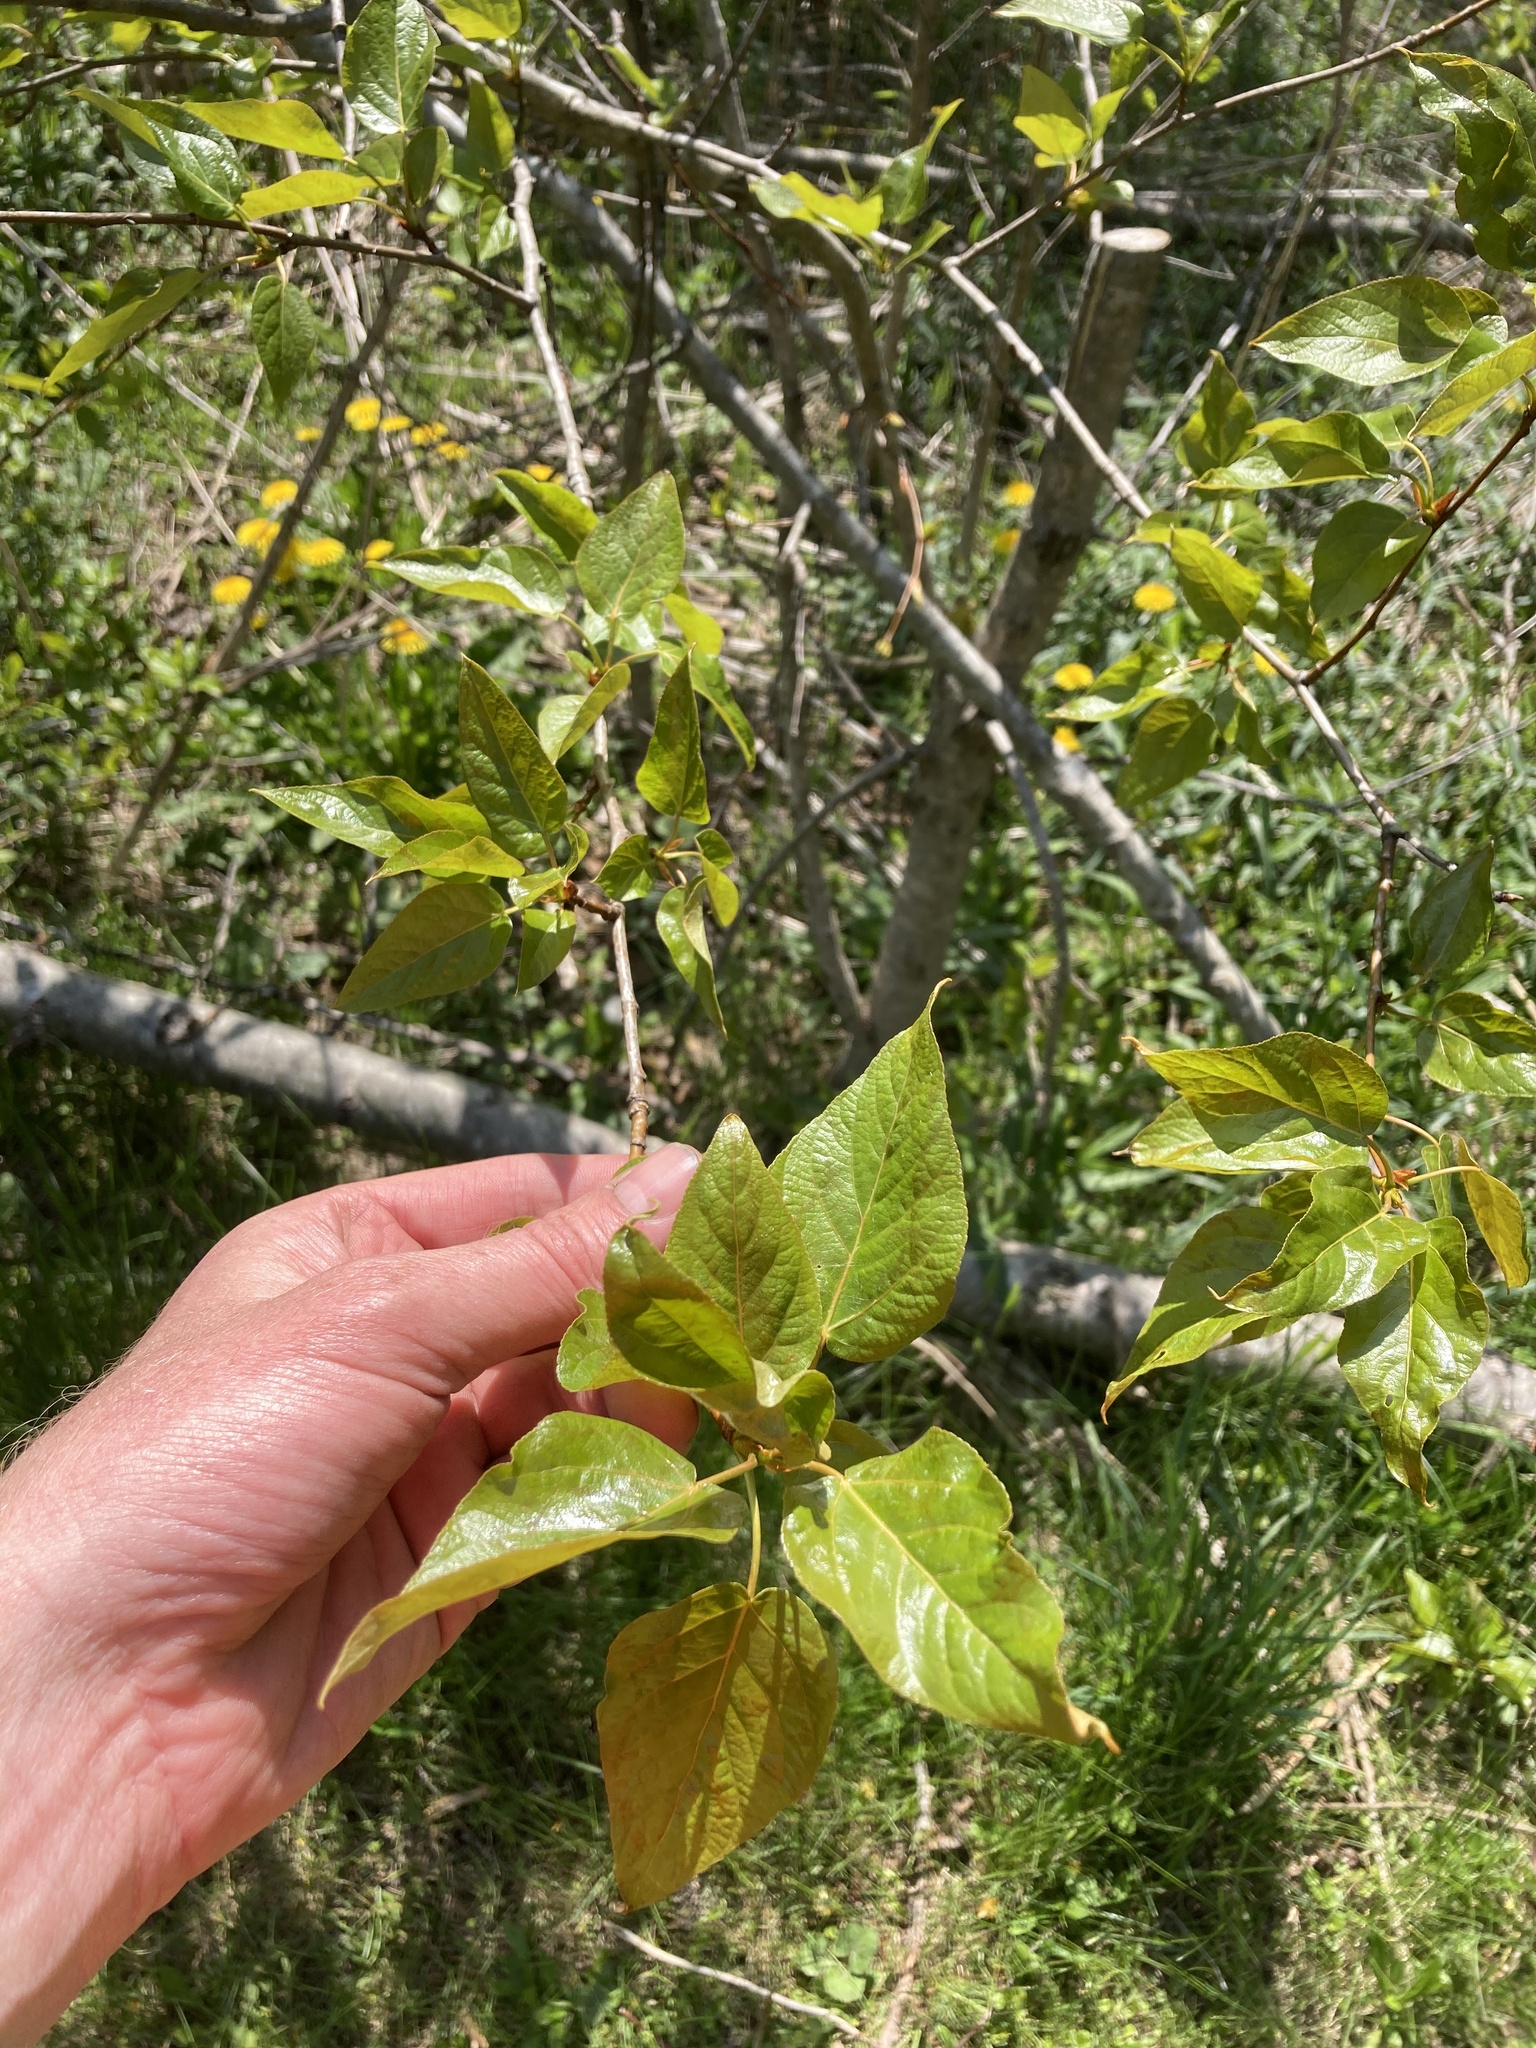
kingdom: Plantae
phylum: Tracheophyta
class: Magnoliopsida
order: Malpighiales
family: Salicaceae
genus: Populus
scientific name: Populus balsamifera
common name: Balsam poplar
